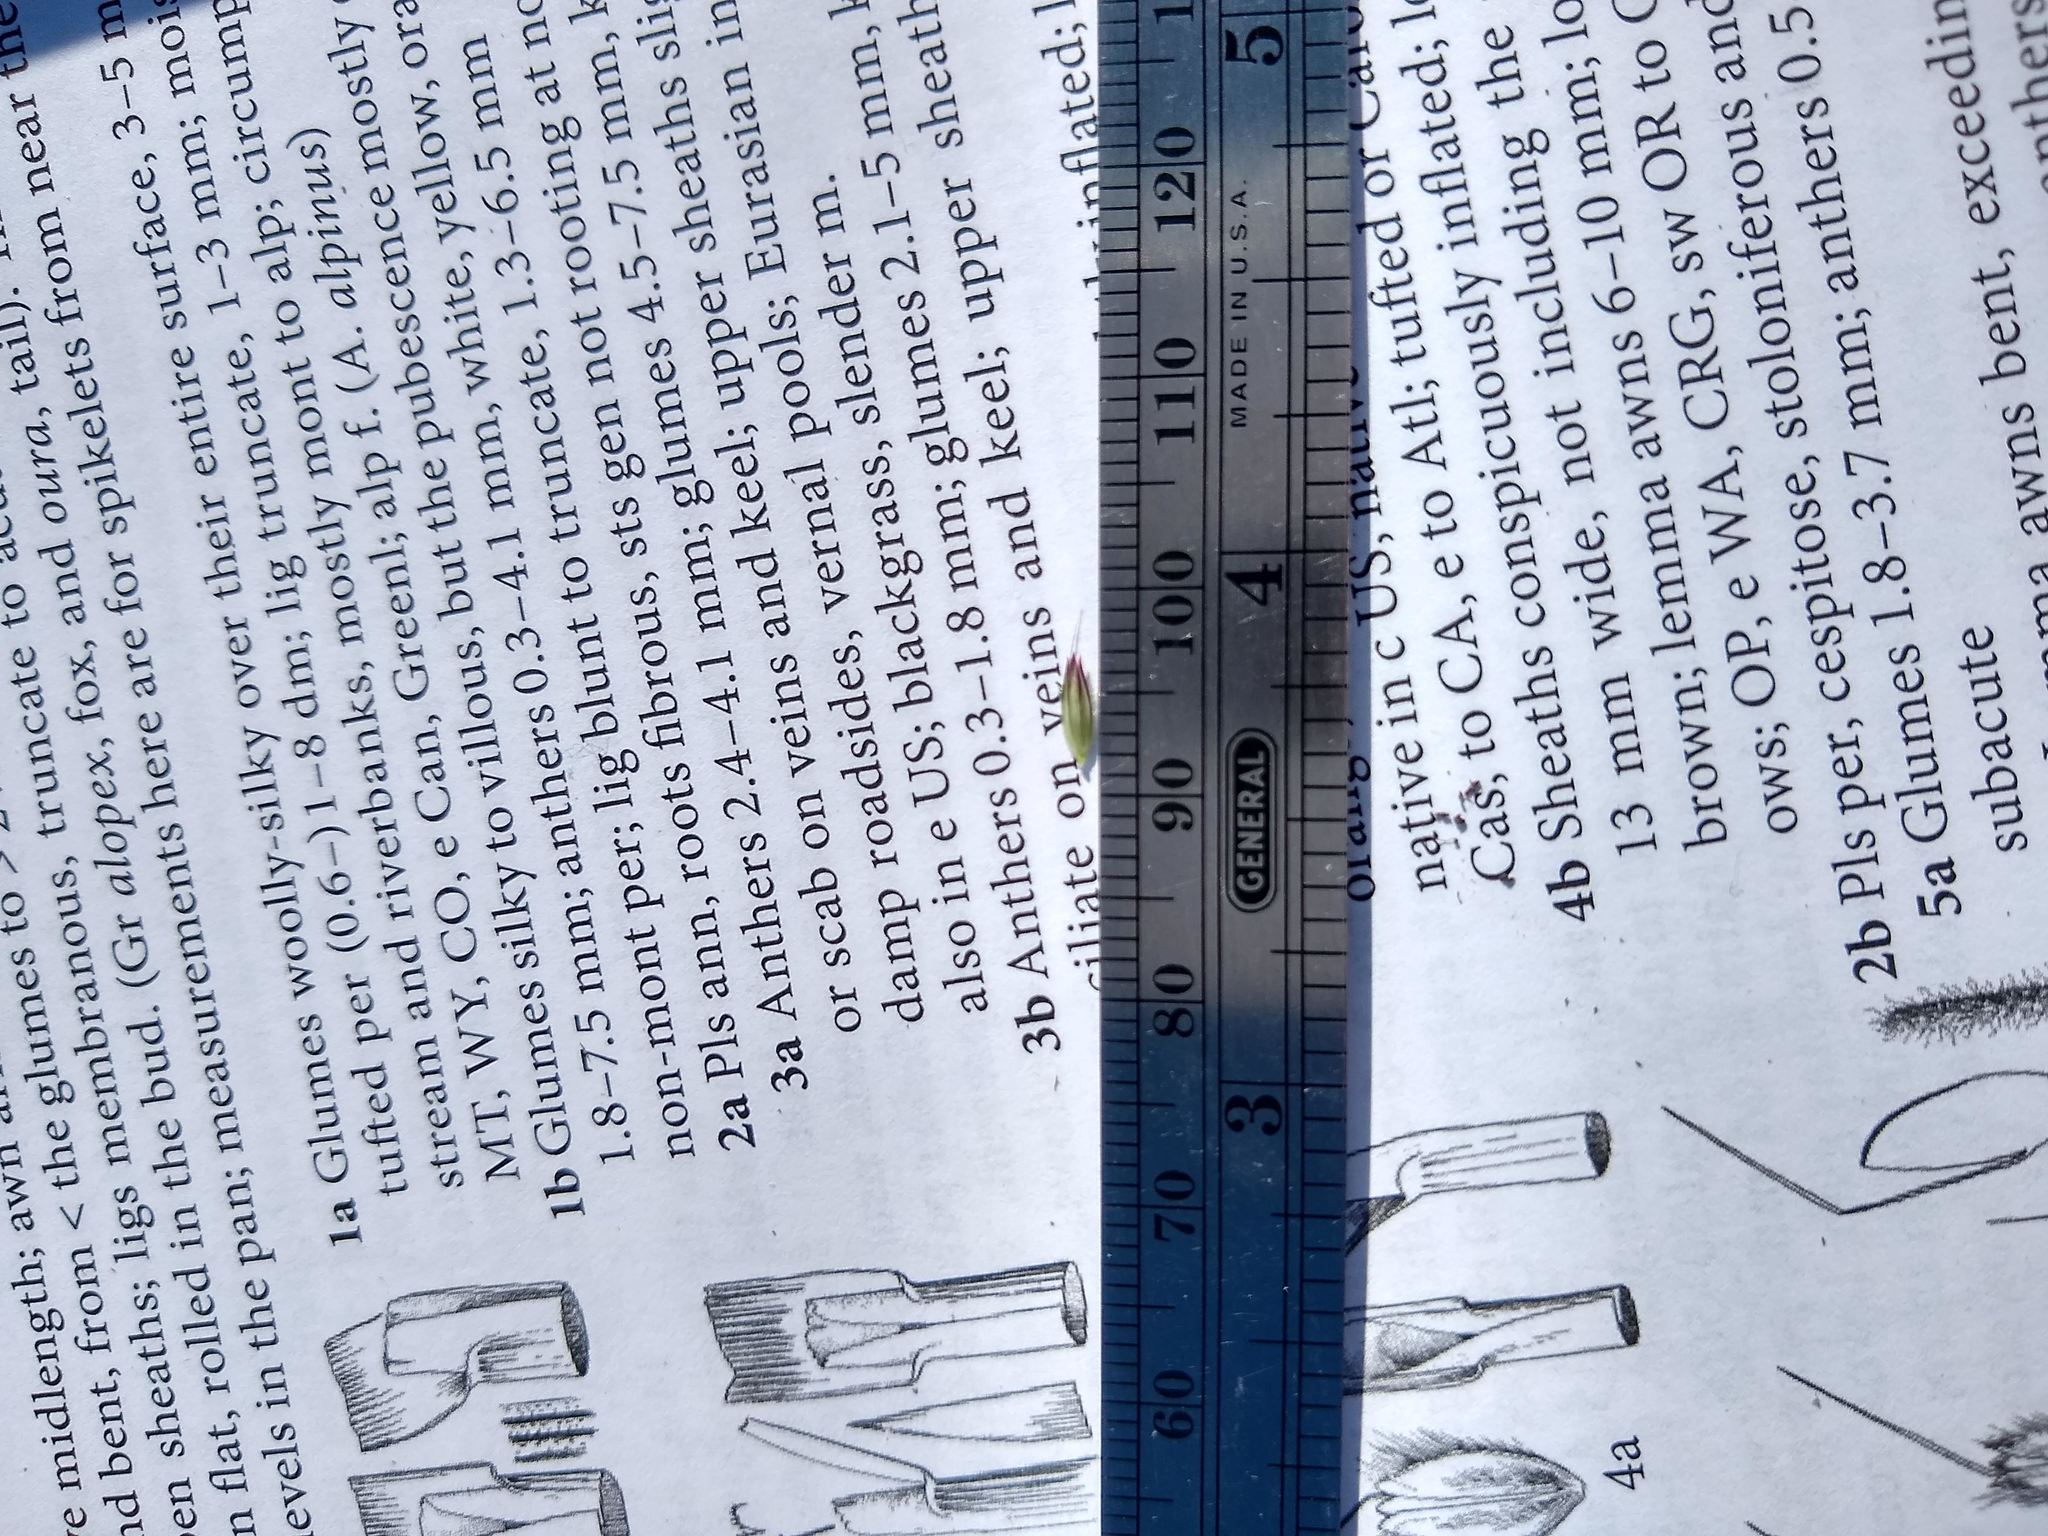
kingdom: Plantae
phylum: Tracheophyta
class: Liliopsida
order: Poales
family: Poaceae
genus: Alopecurus
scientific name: Alopecurus pratensis
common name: Meadow foxtail
